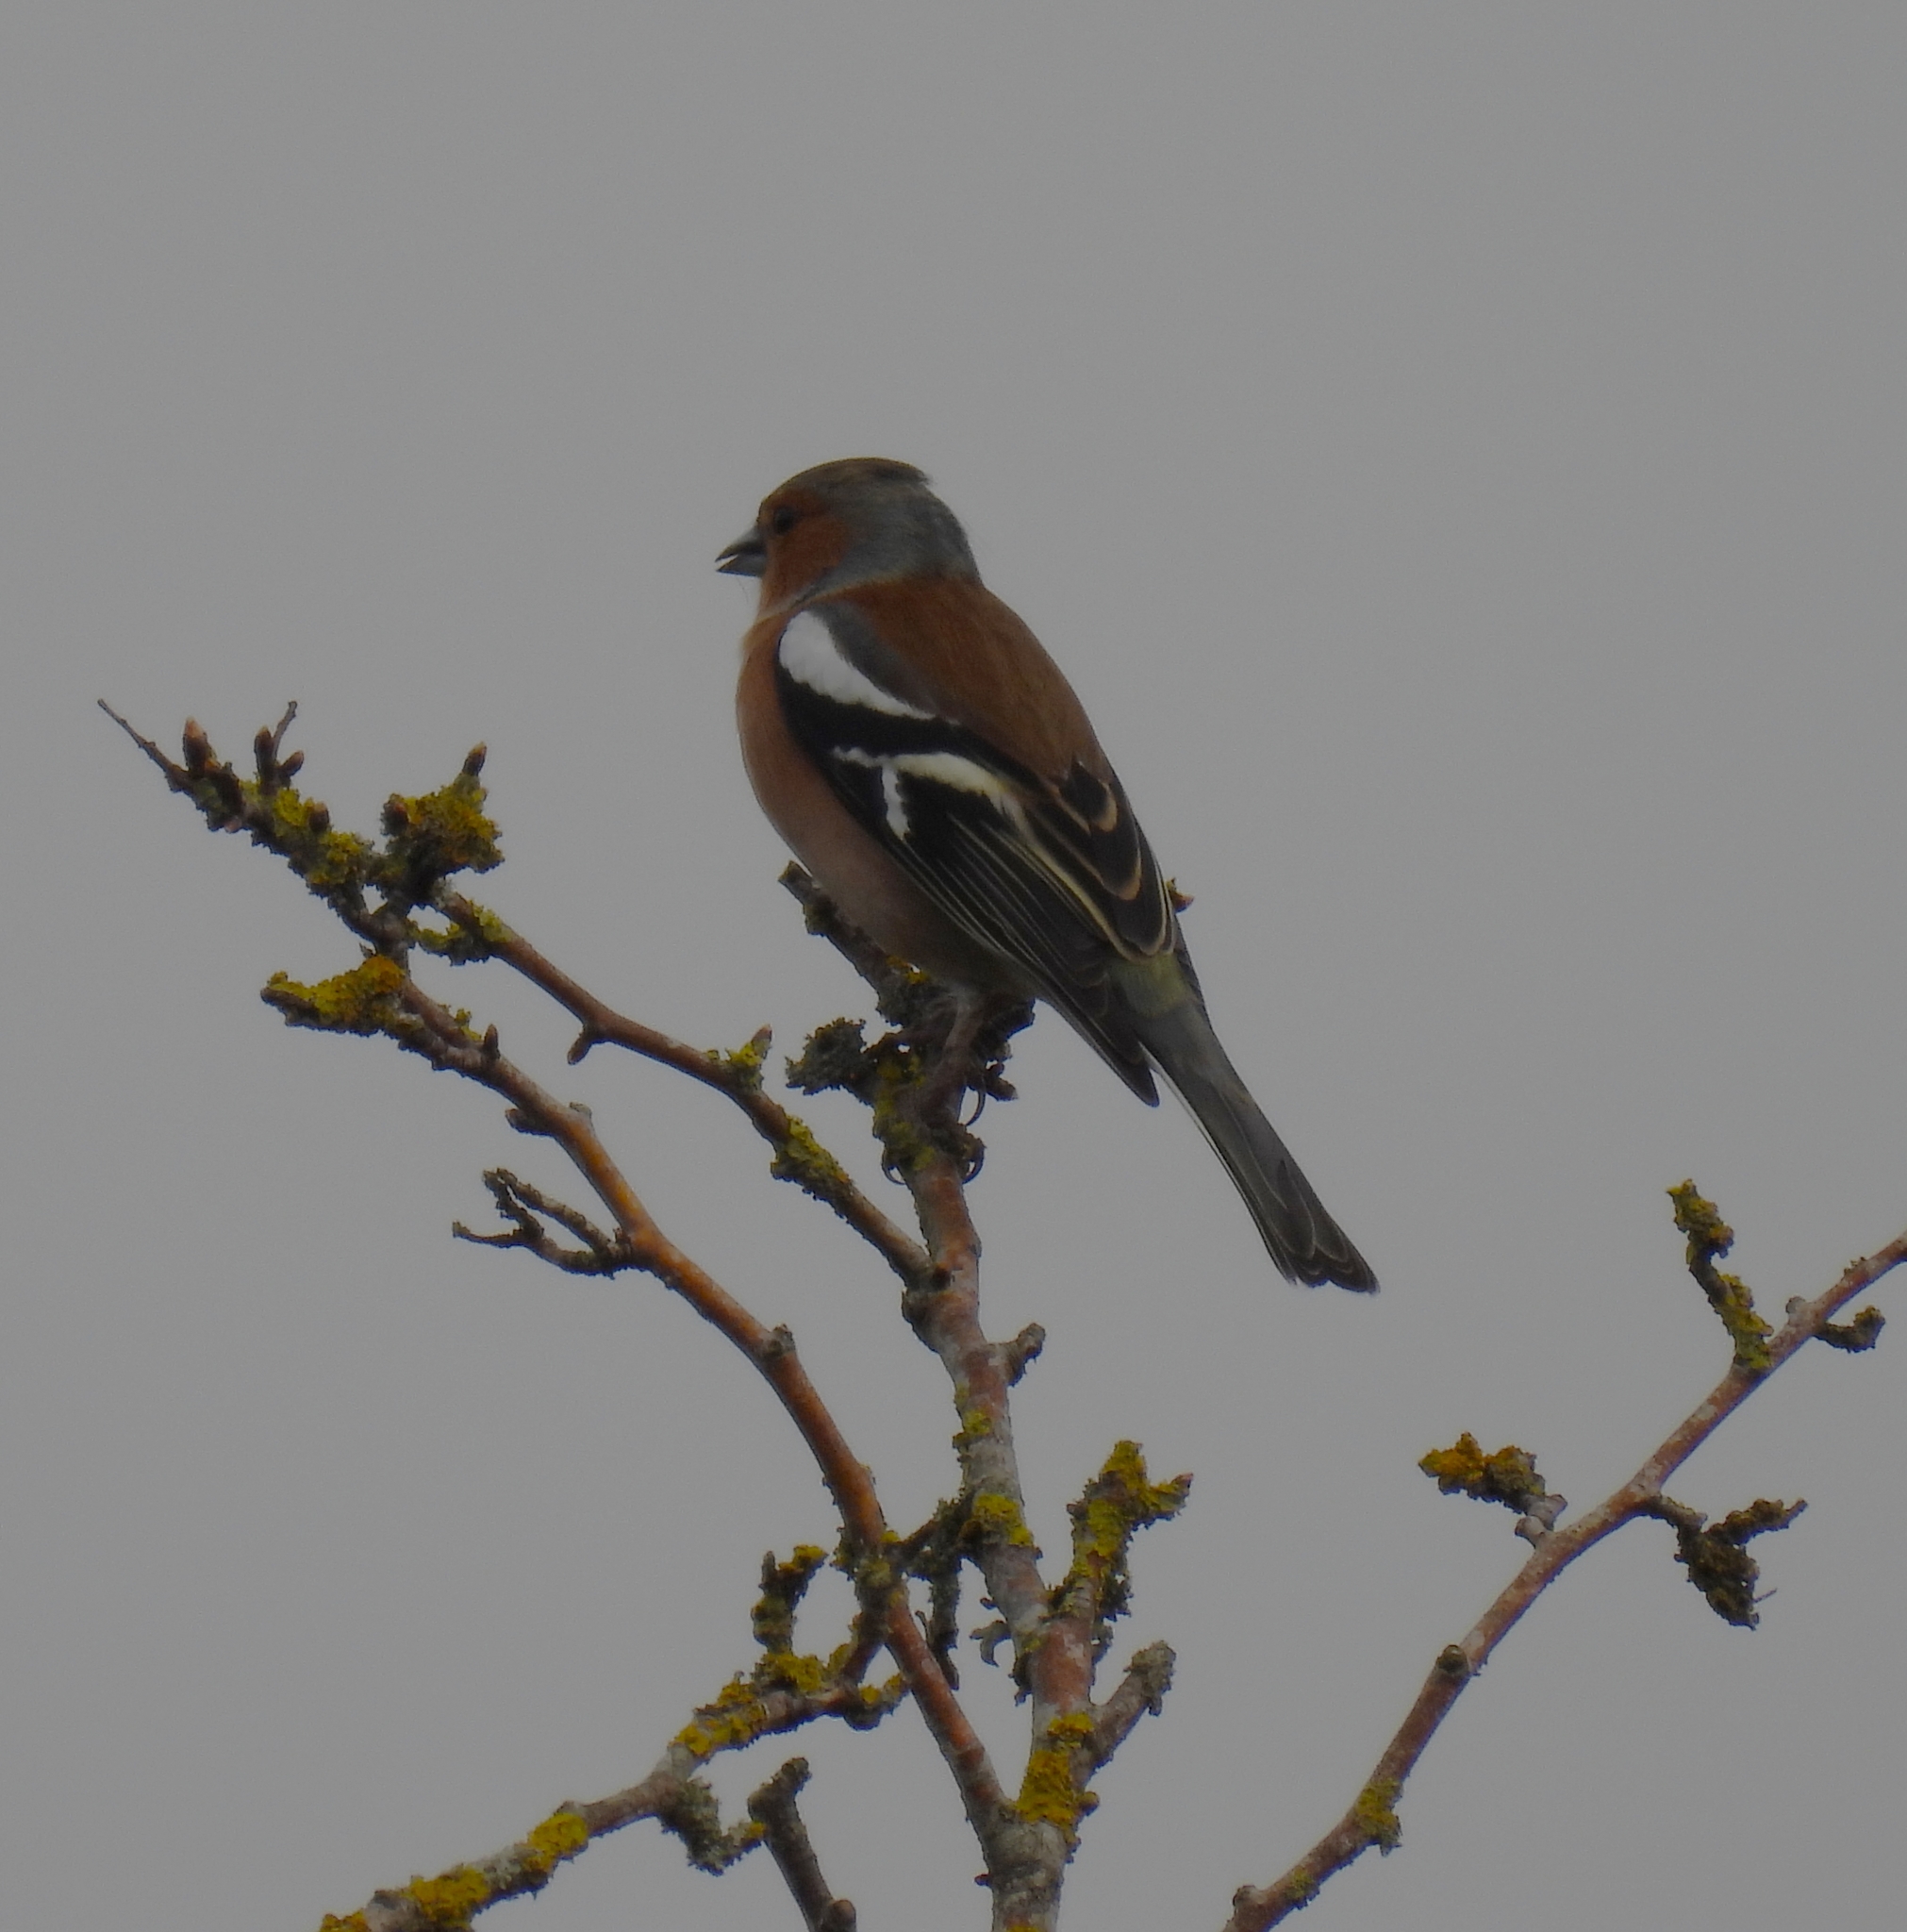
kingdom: Animalia
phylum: Chordata
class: Aves
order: Passeriformes
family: Fringillidae
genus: Fringilla
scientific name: Fringilla coelebs
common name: Common chaffinch
